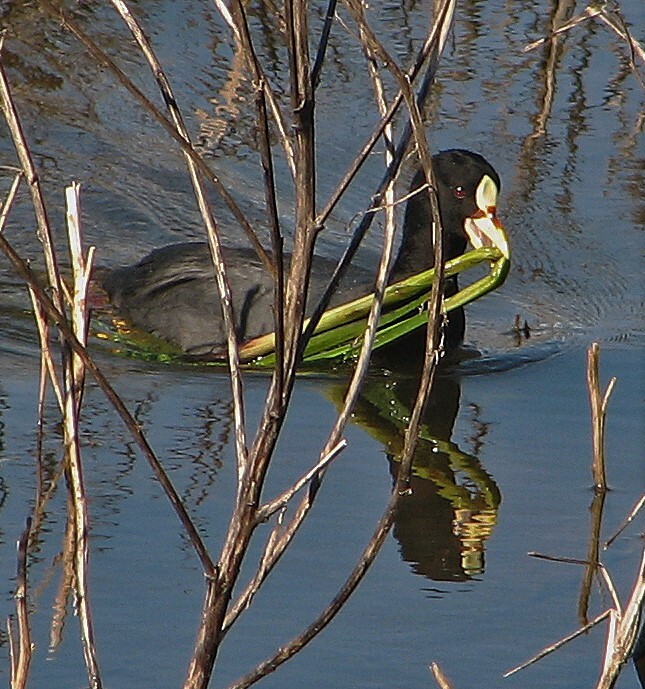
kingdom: Animalia
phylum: Chordata
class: Aves
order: Gruiformes
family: Rallidae
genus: Fulica
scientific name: Fulica armillata
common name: Red-gartered coot
